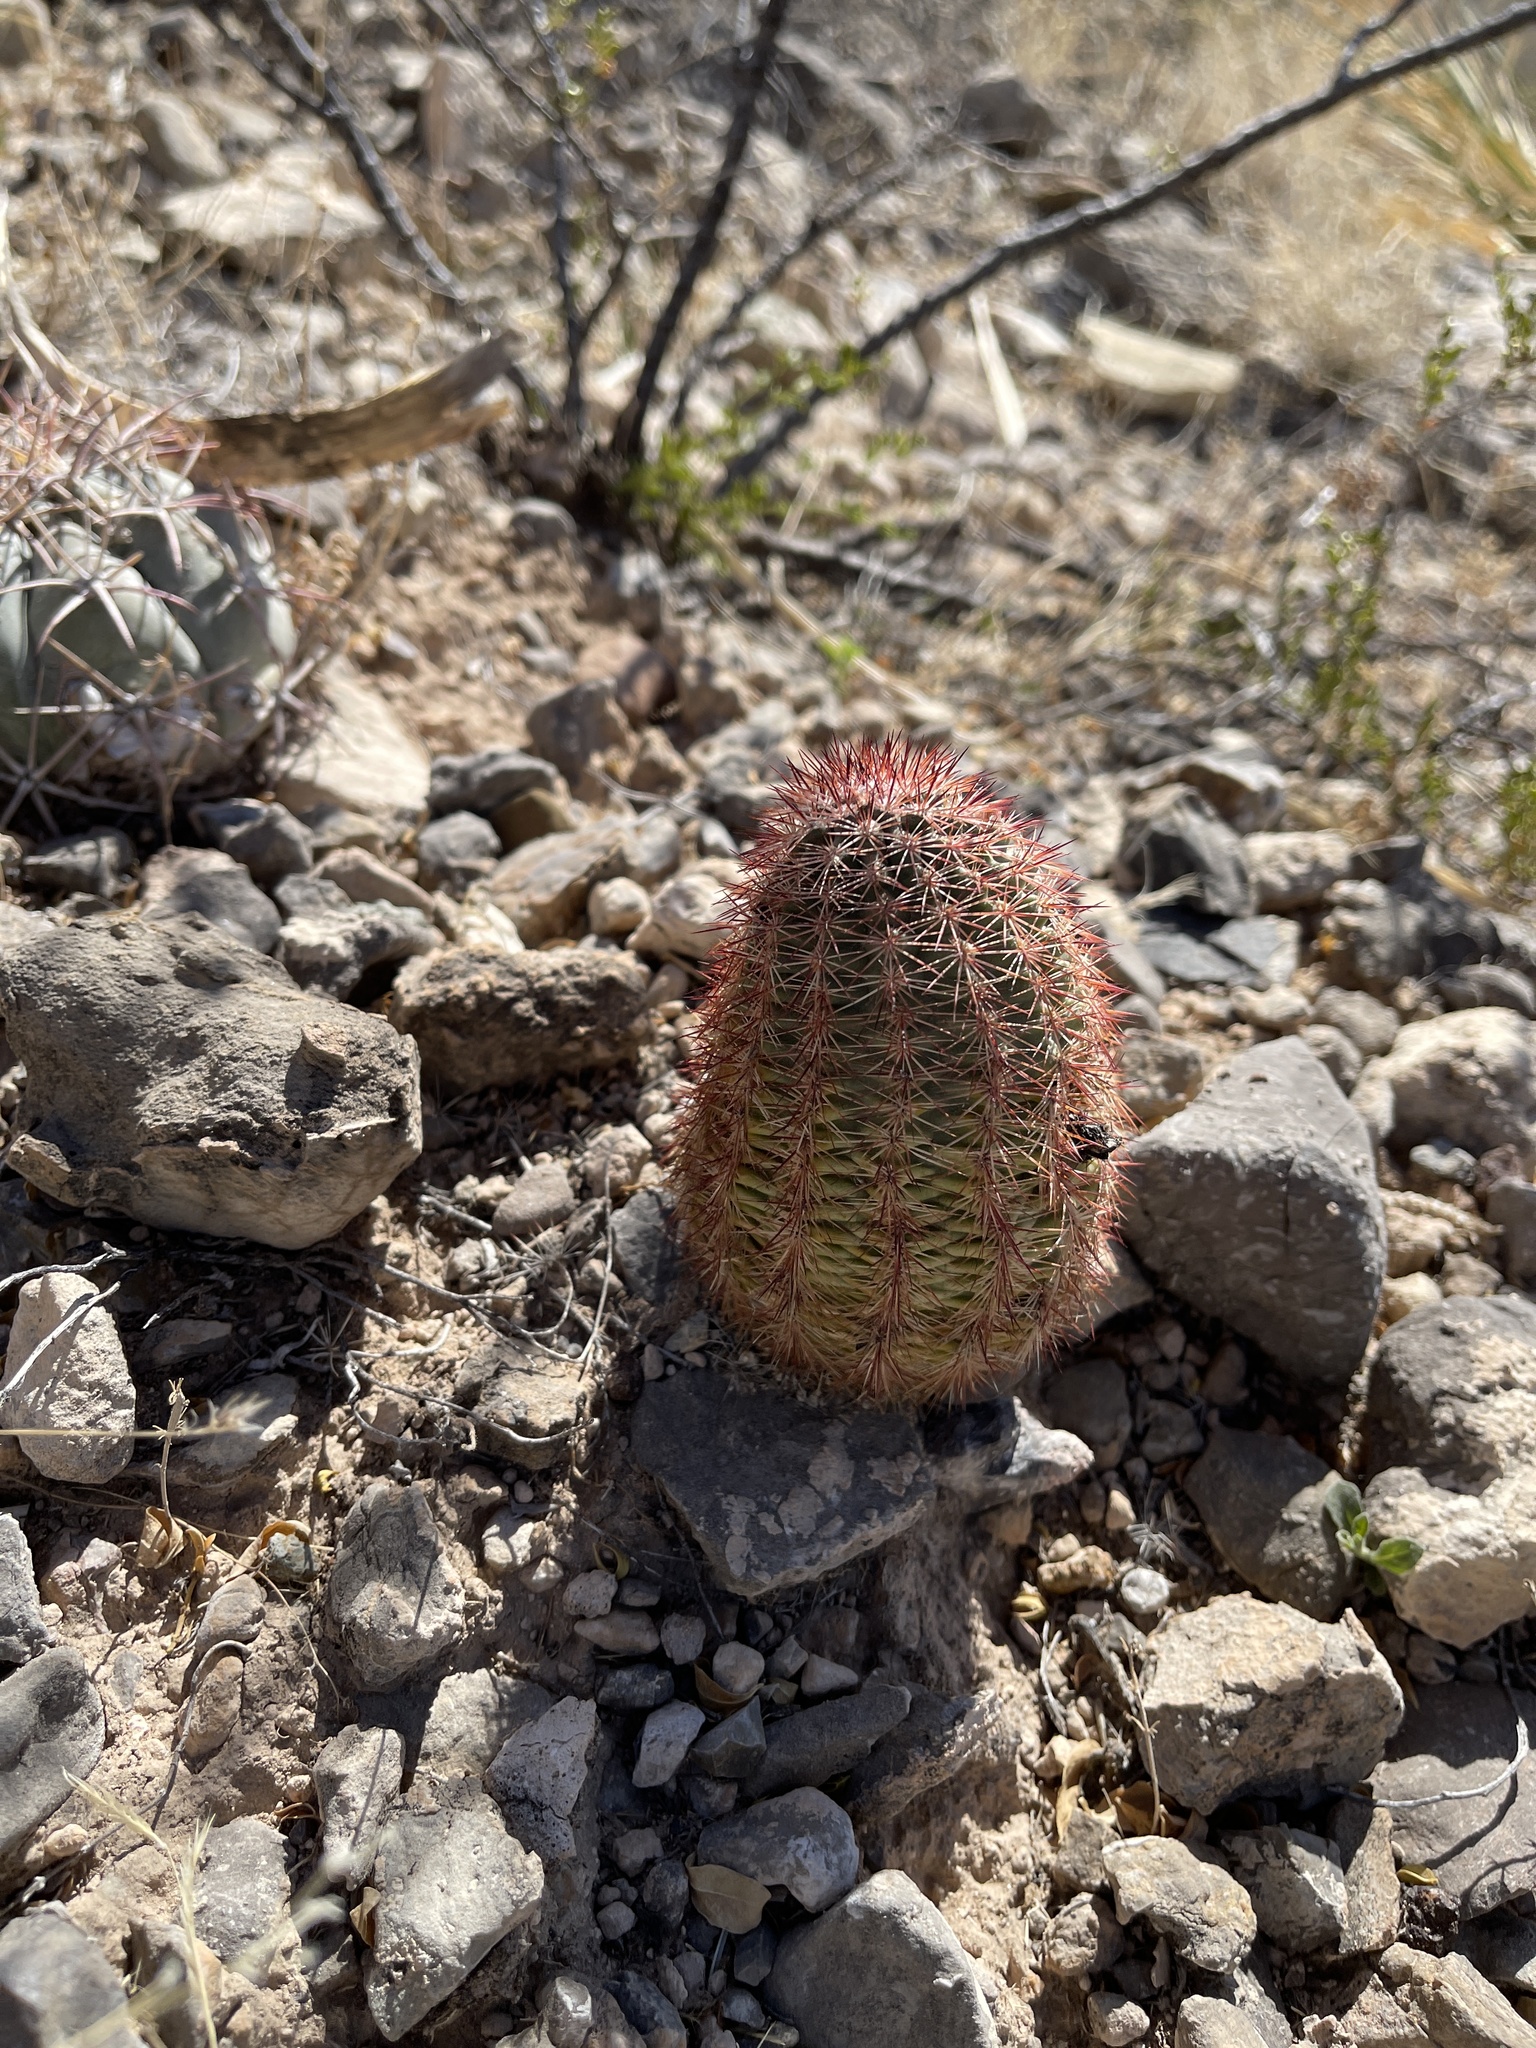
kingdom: Plantae
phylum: Tracheophyta
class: Magnoliopsida
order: Caryophyllales
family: Cactaceae
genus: Echinocereus
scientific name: Echinocereus dasyacanthus
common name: Spiny hedgehog cactus
